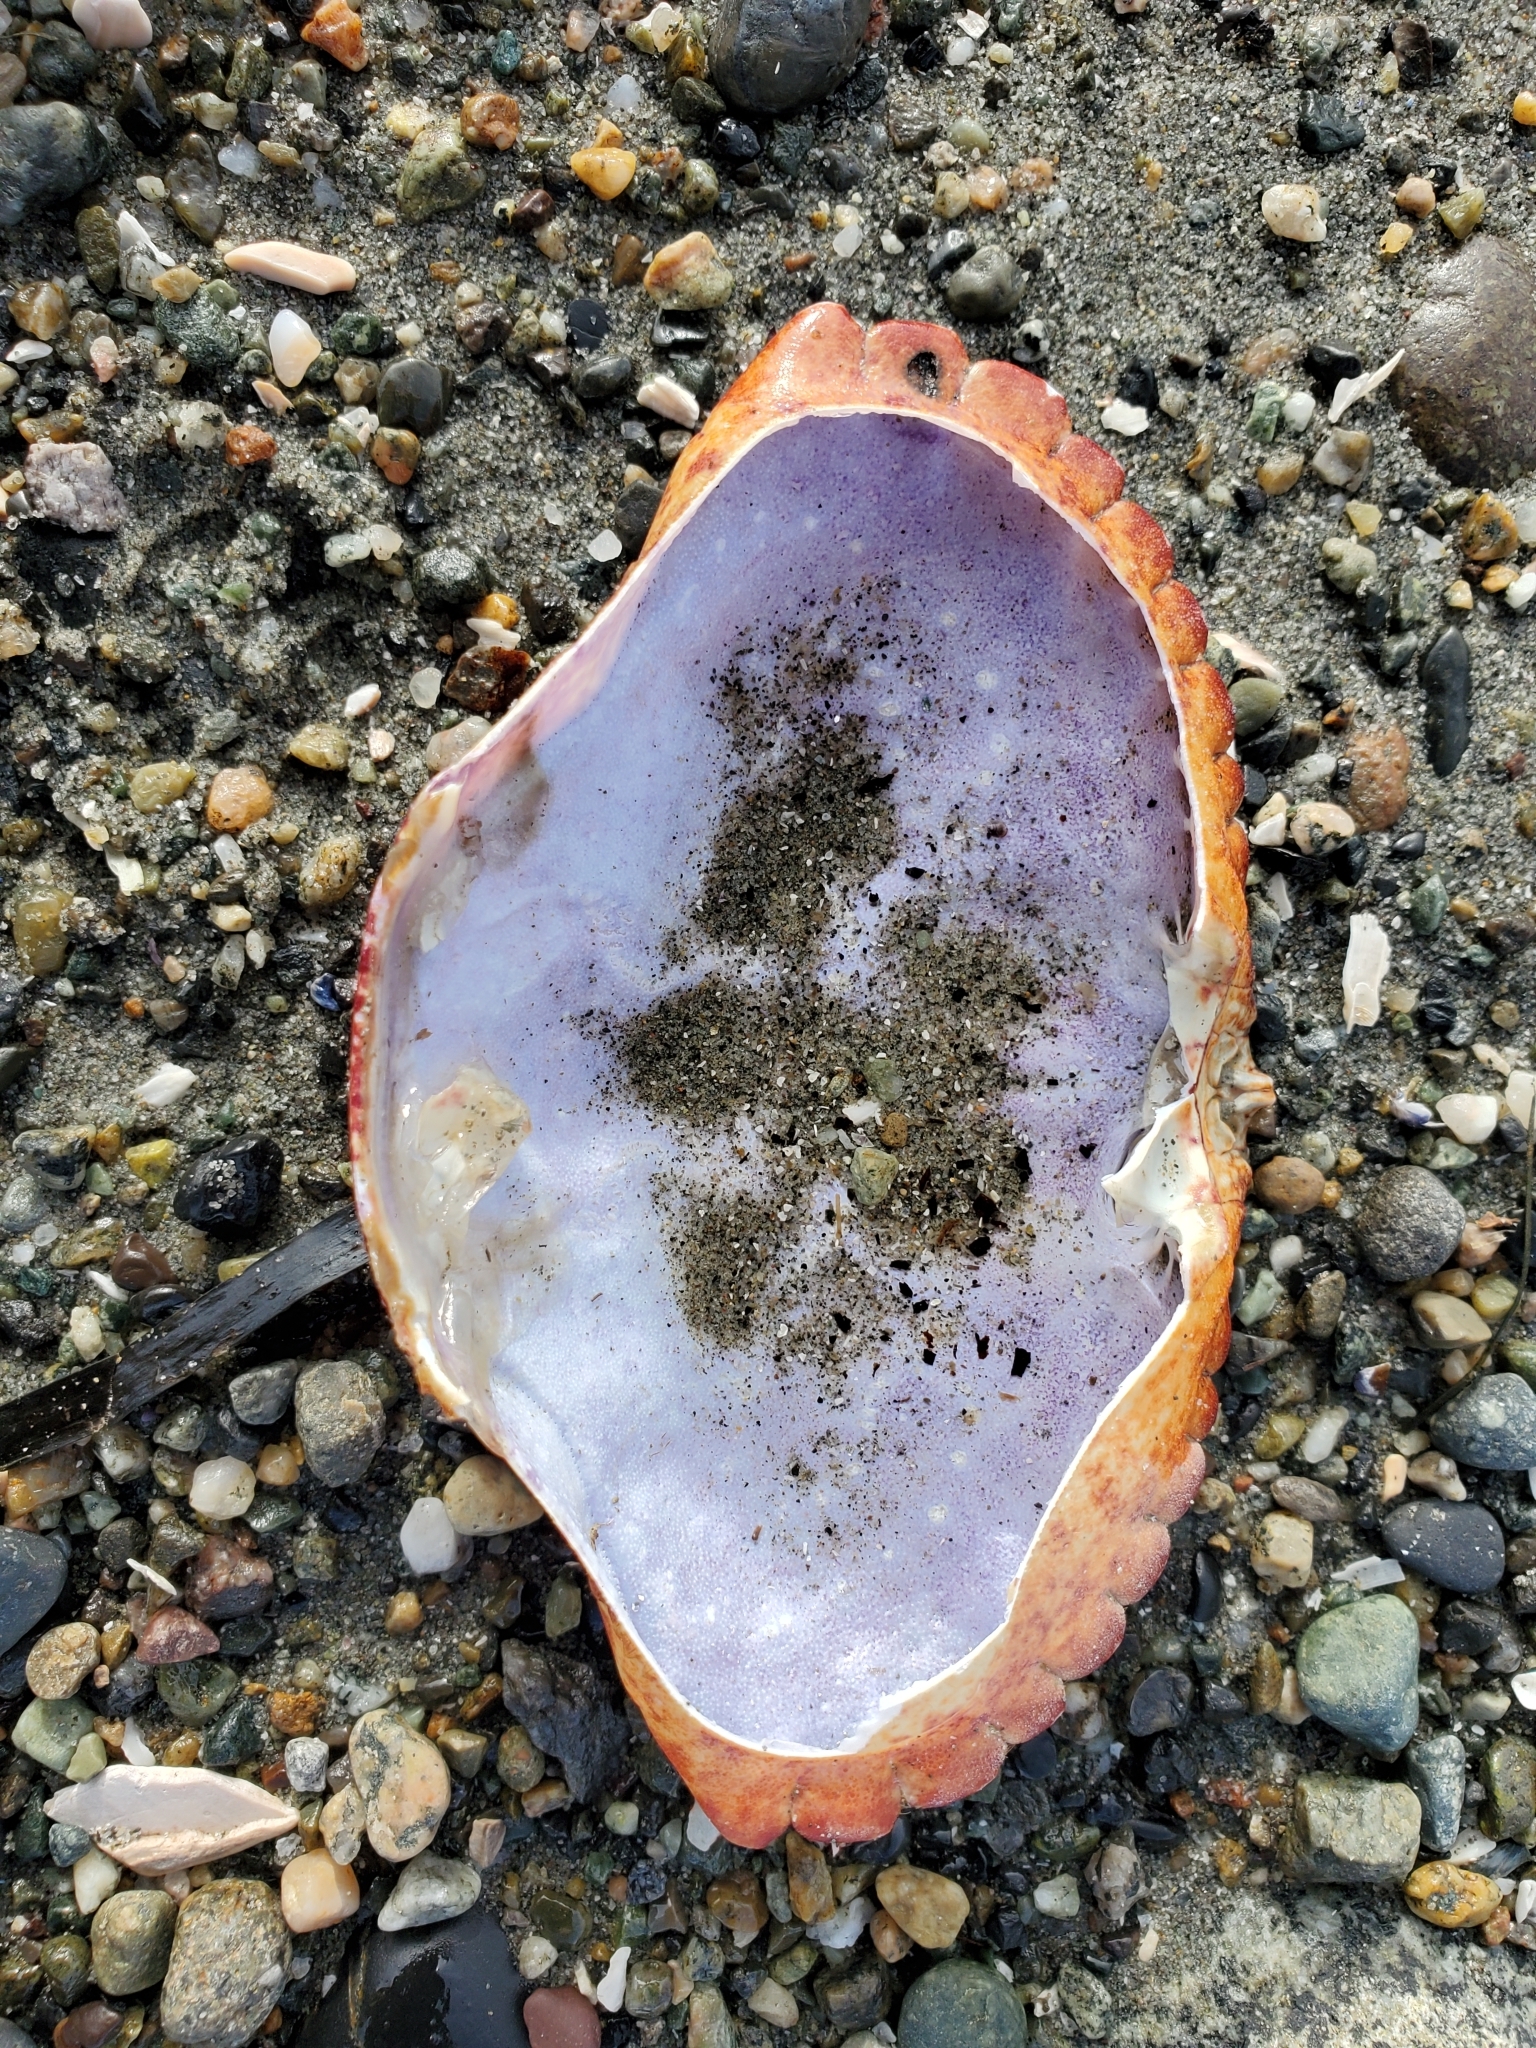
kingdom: Animalia
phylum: Arthropoda
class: Malacostraca
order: Decapoda
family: Cancridae
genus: Cancer
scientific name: Cancer productus
